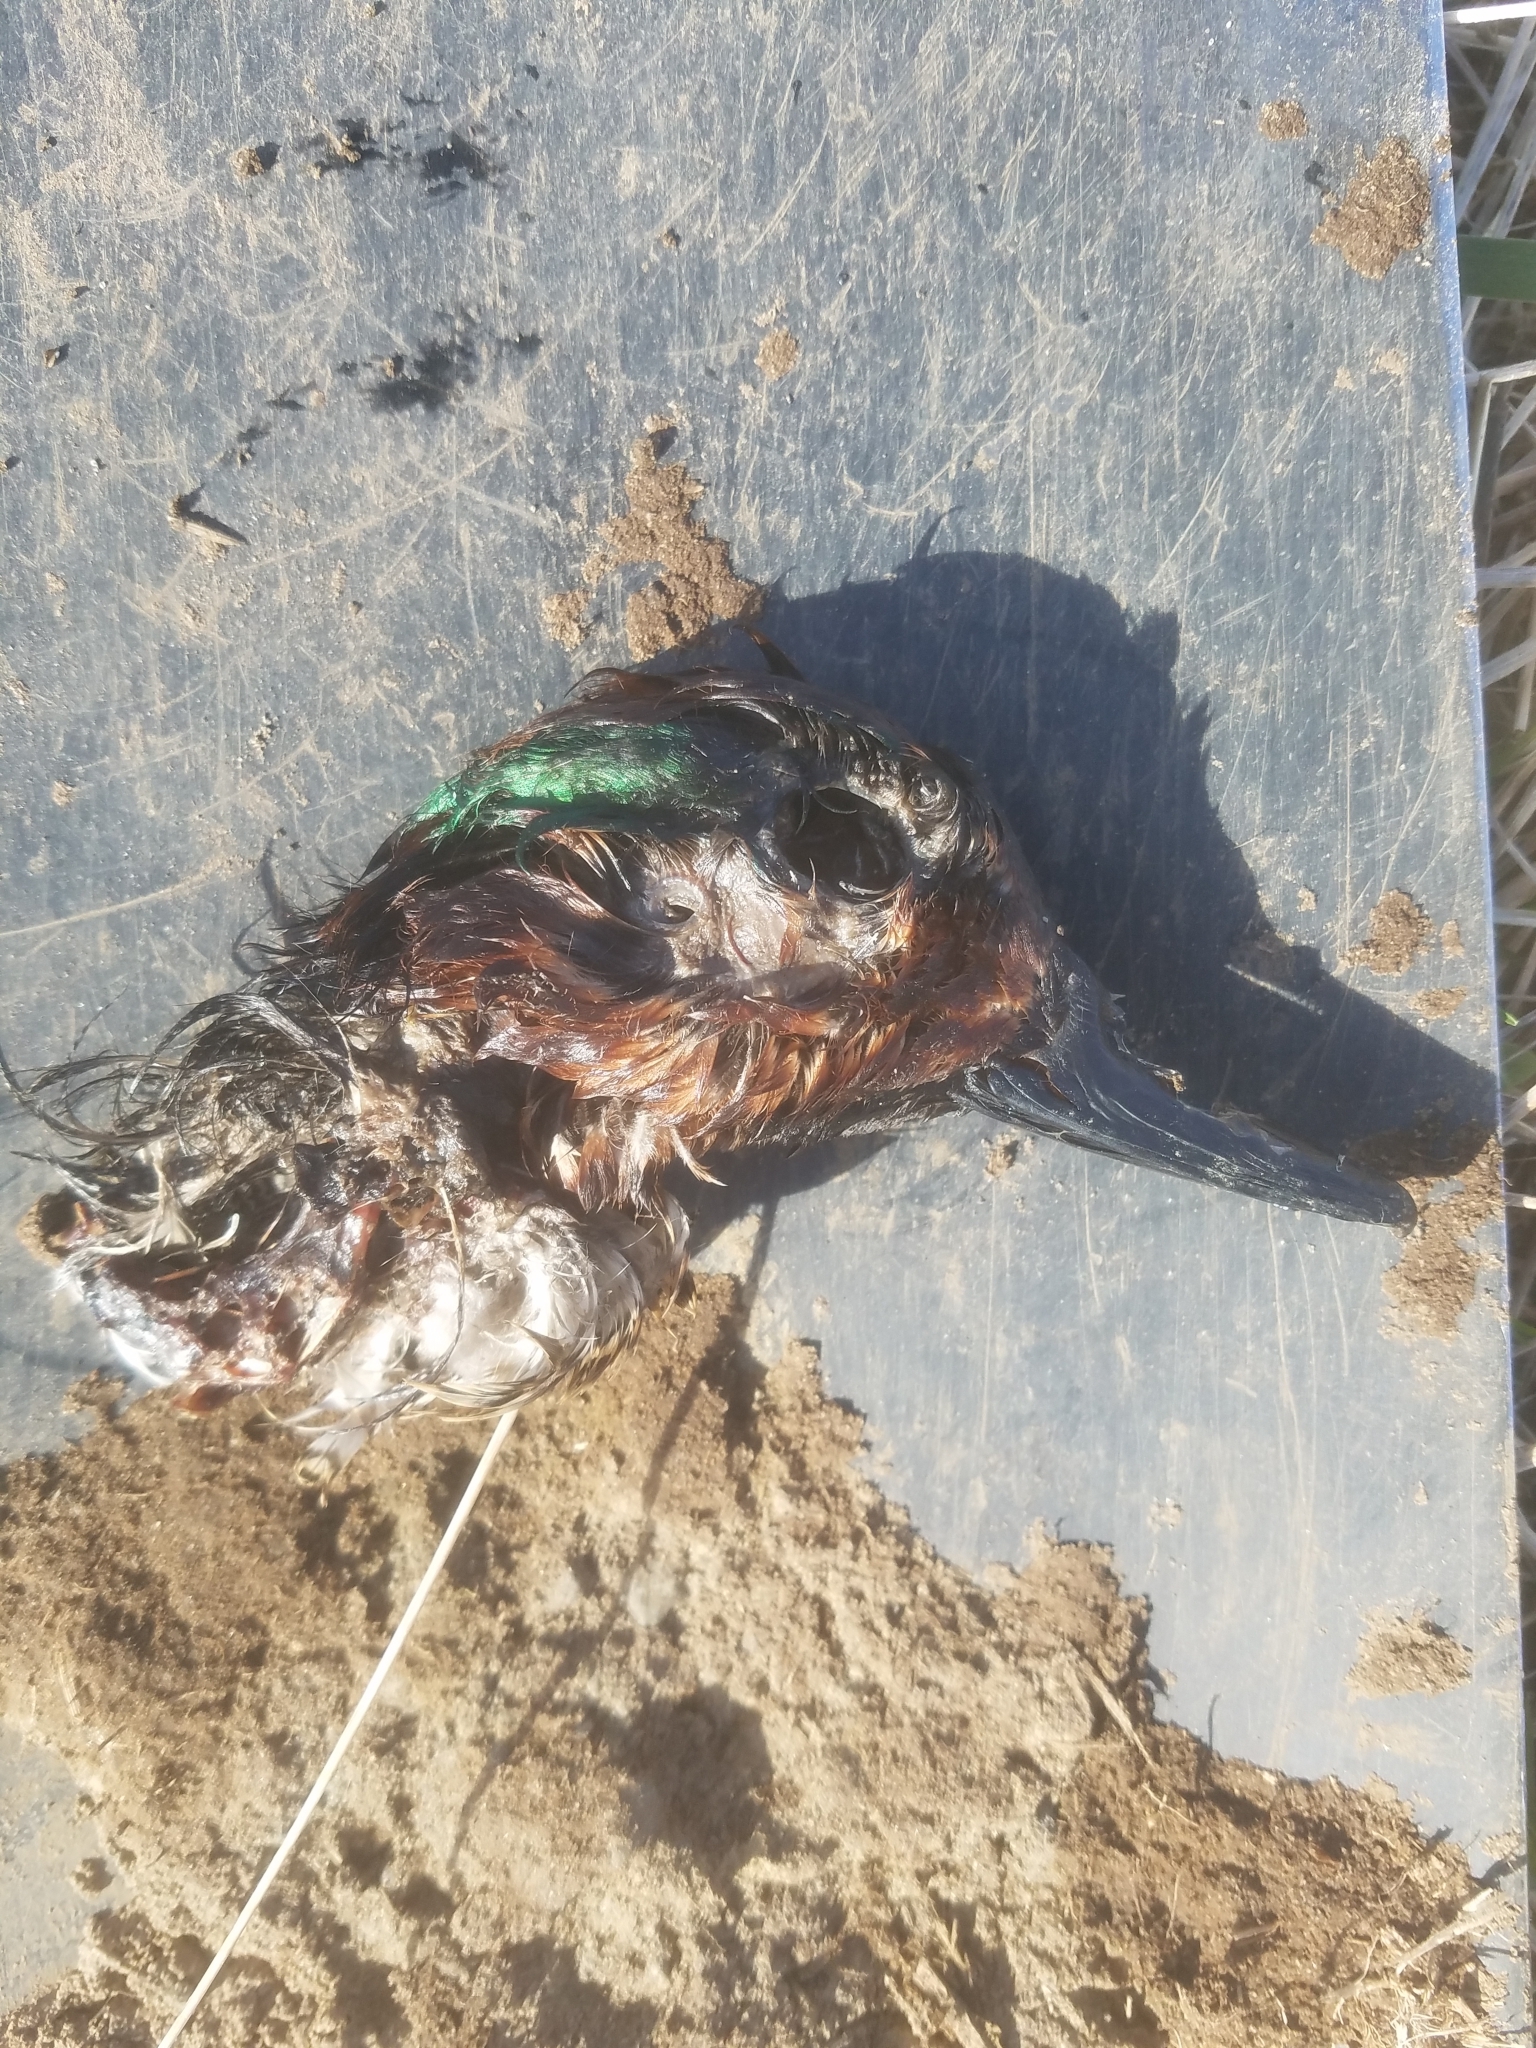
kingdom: Animalia
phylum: Chordata
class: Aves
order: Anseriformes
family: Anatidae
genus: Mareca
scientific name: Mareca americana
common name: American wigeon
